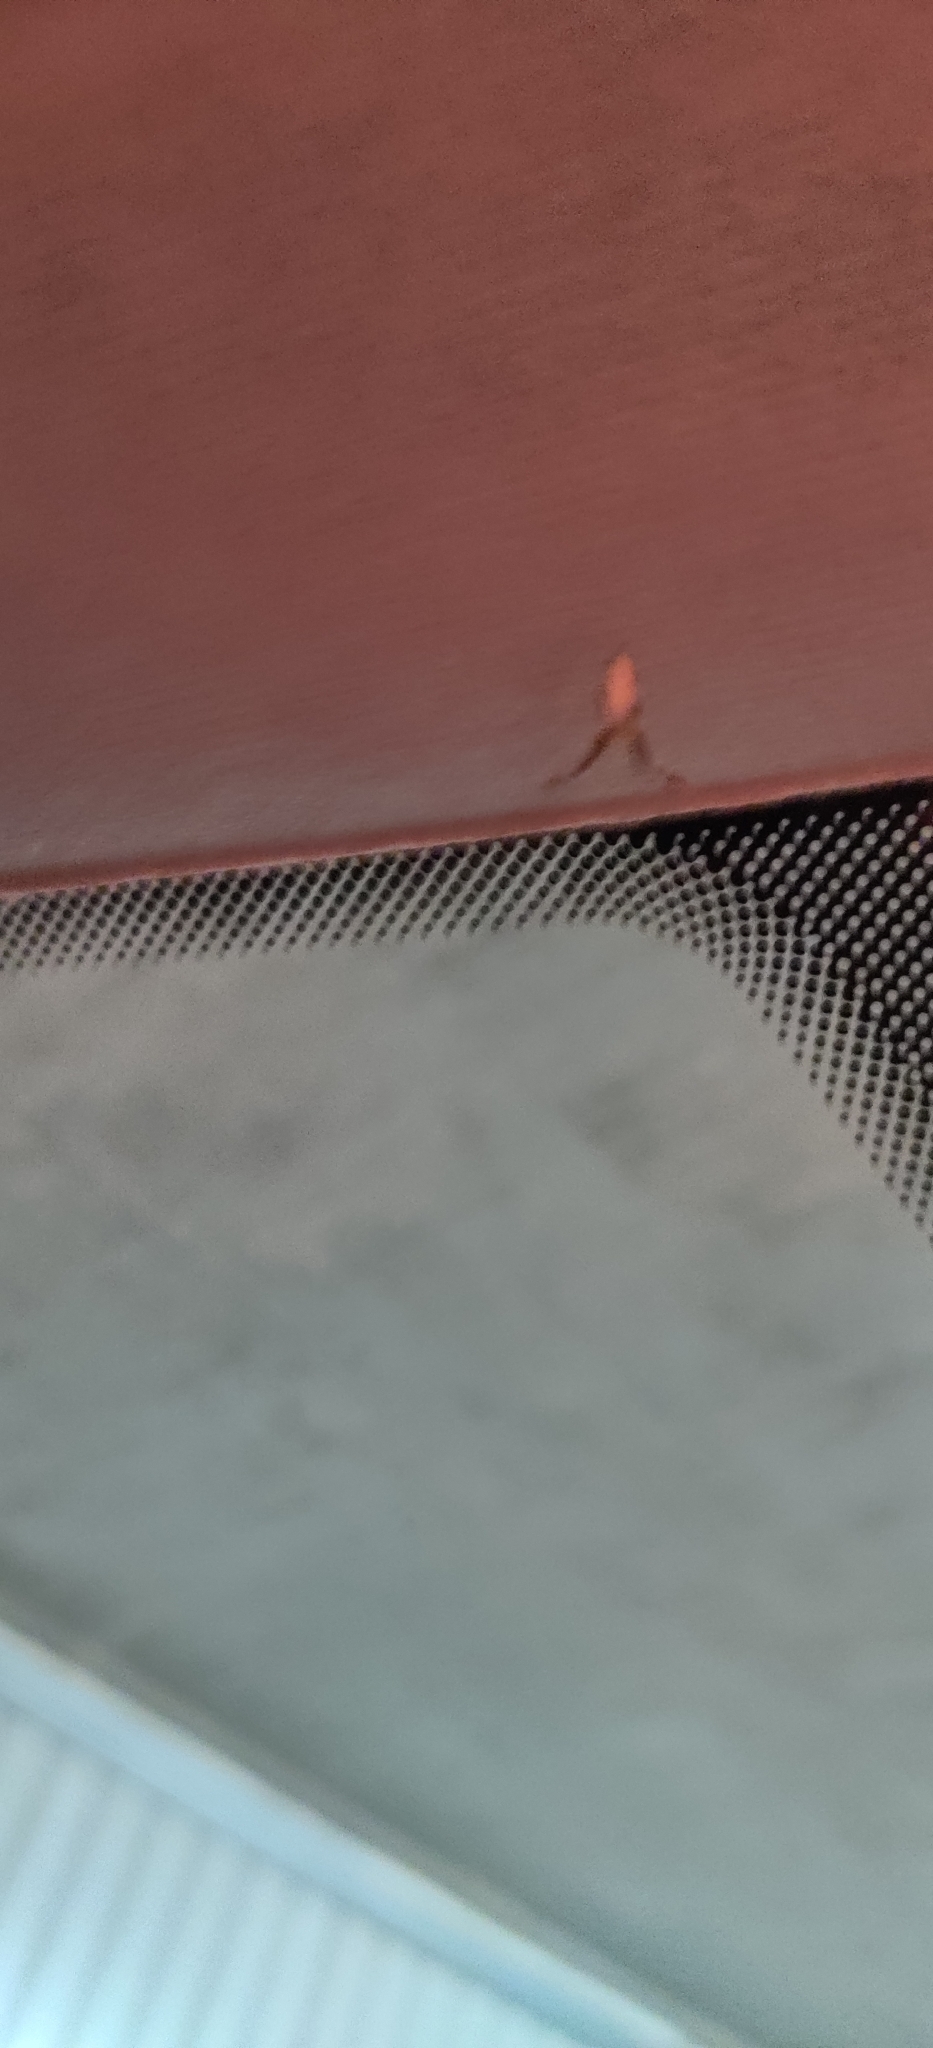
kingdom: Animalia
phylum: Arthropoda
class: Arachnida
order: Araneae
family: Uloboridae
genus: Uloborus
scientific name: Uloborus walckenaerius
